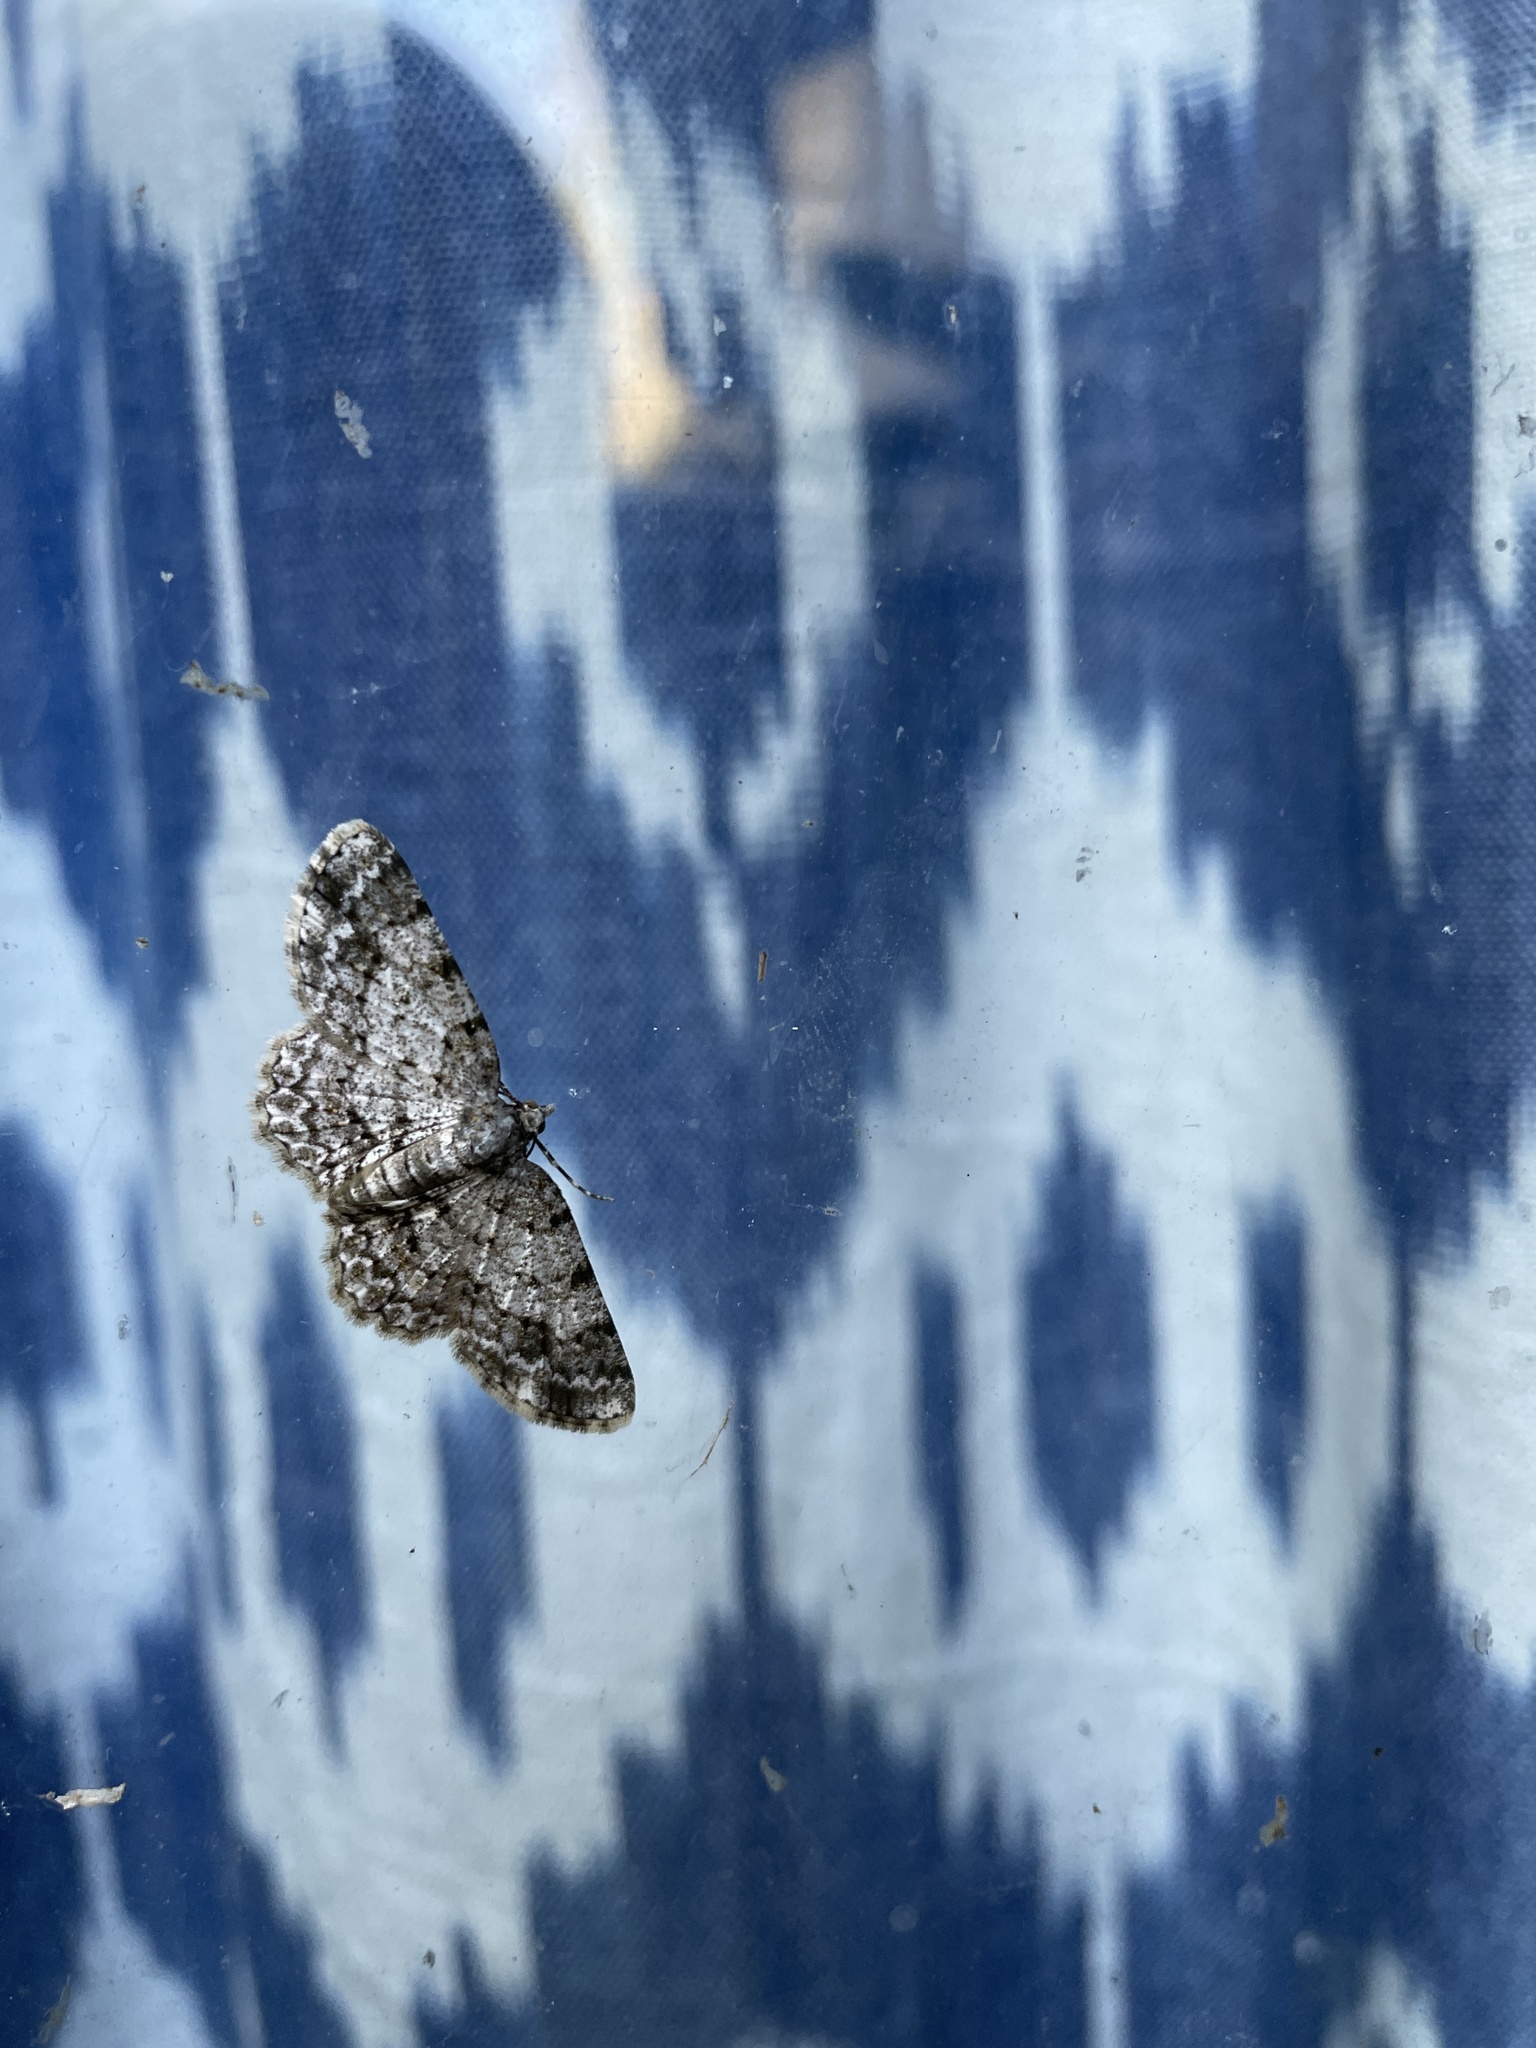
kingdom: Animalia
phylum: Arthropoda
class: Insecta
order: Lepidoptera
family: Geometridae
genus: Hypomecis
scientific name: Hypomecis pallida
